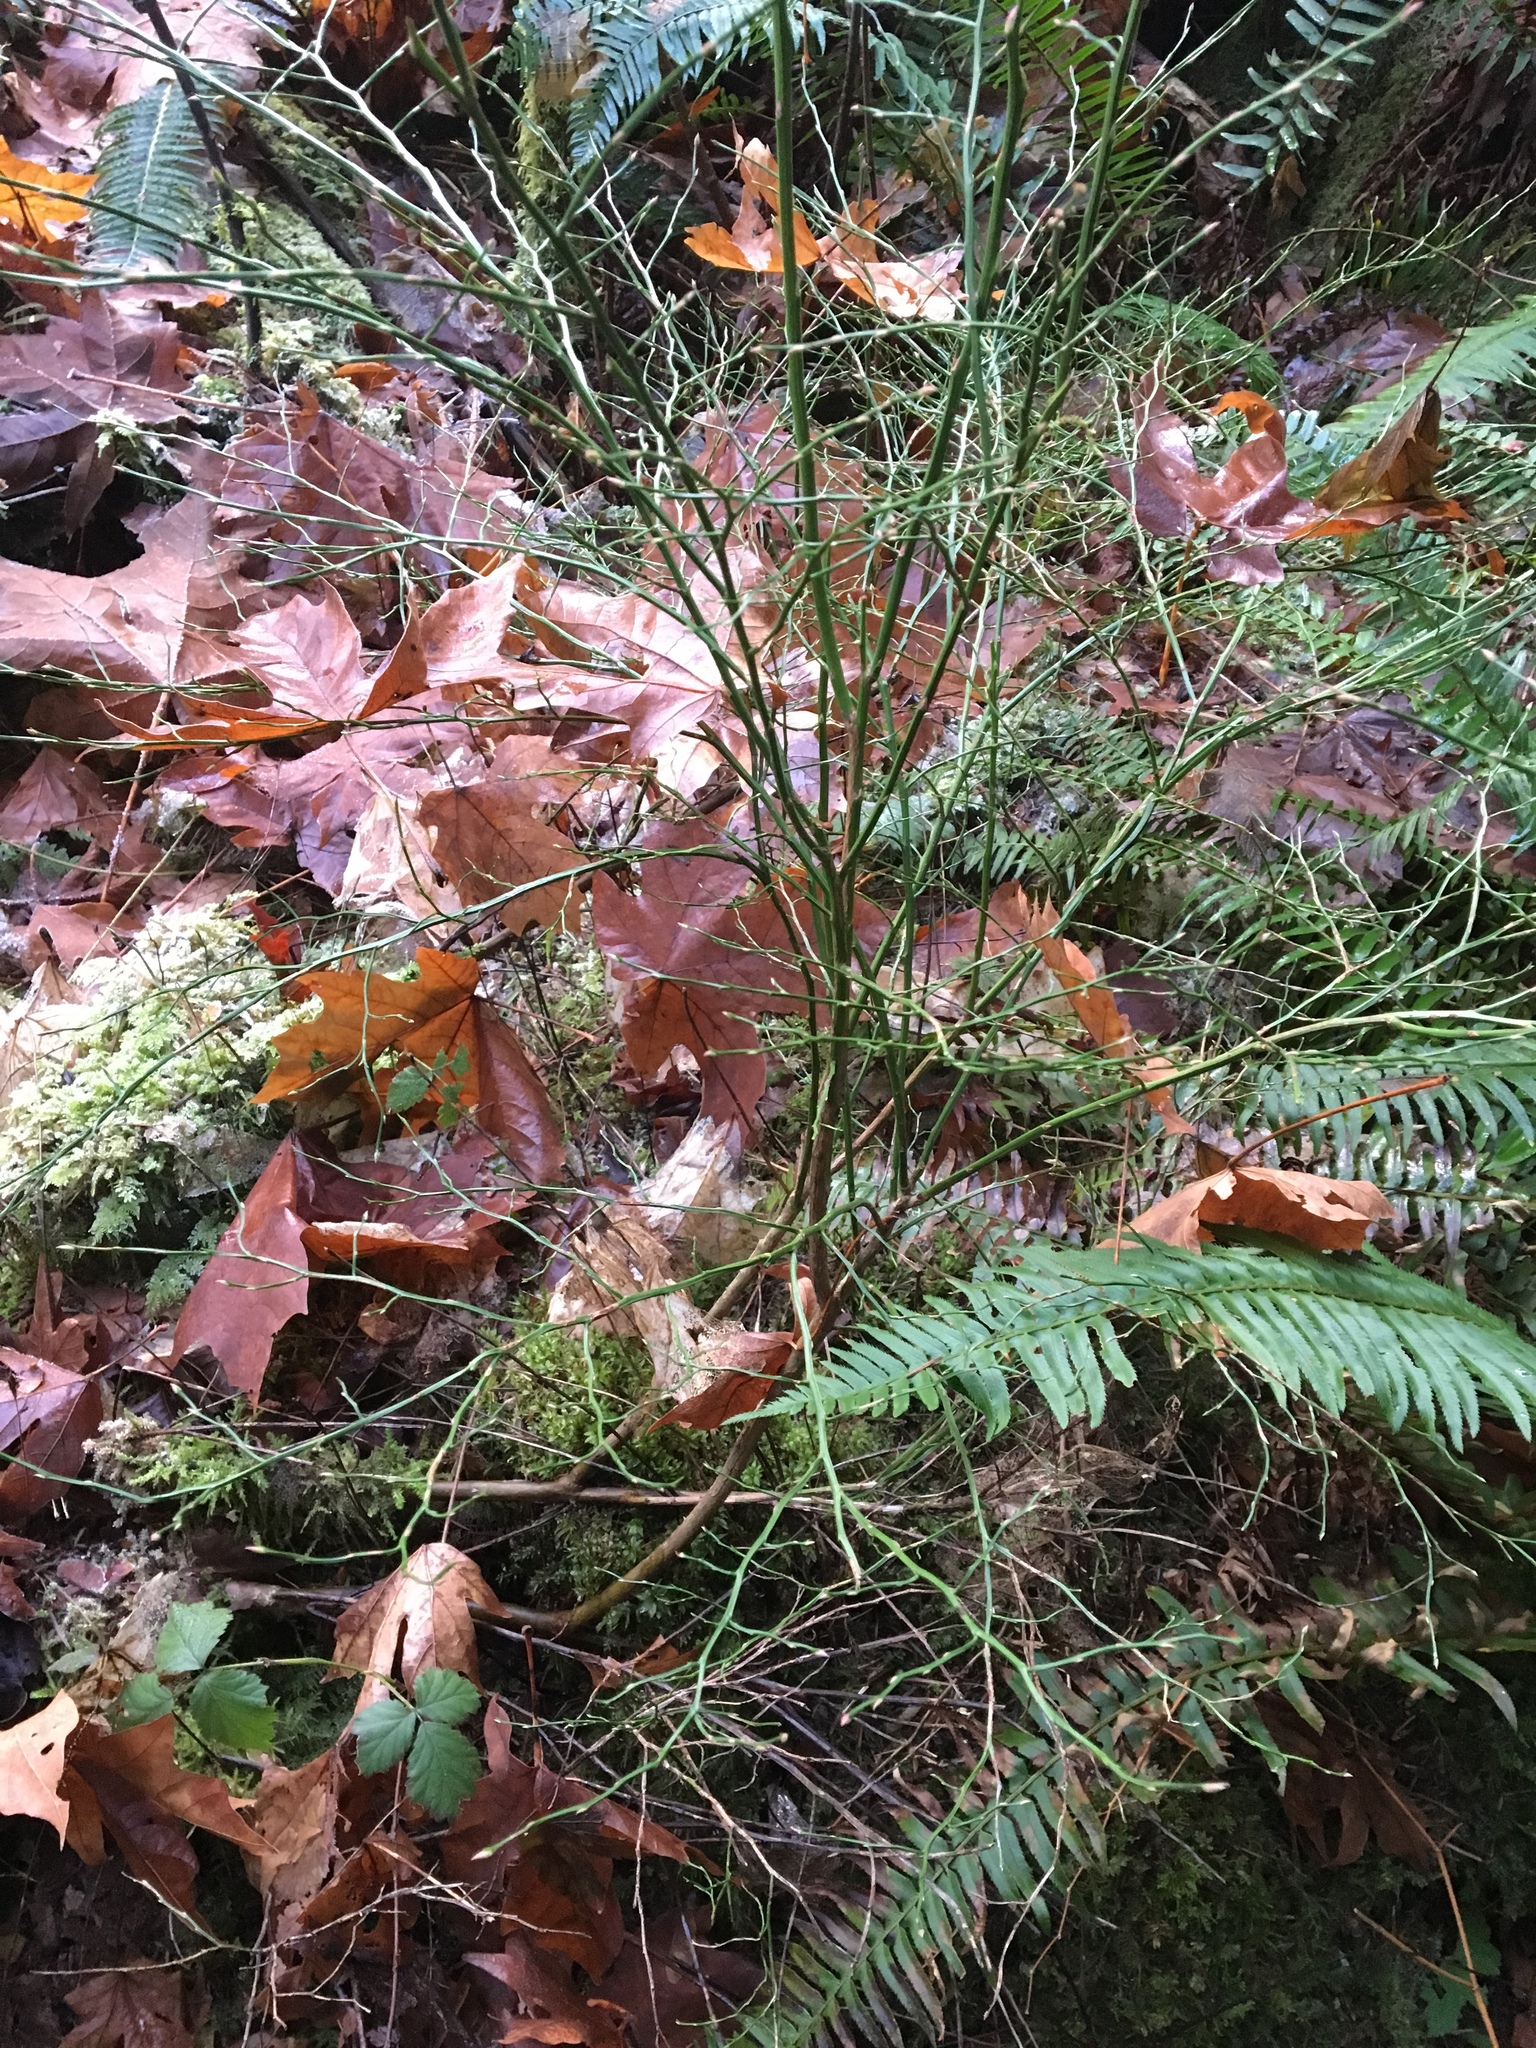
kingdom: Plantae
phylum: Tracheophyta
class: Magnoliopsida
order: Ericales
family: Ericaceae
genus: Vaccinium
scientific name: Vaccinium parvifolium
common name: Red-huckleberry
